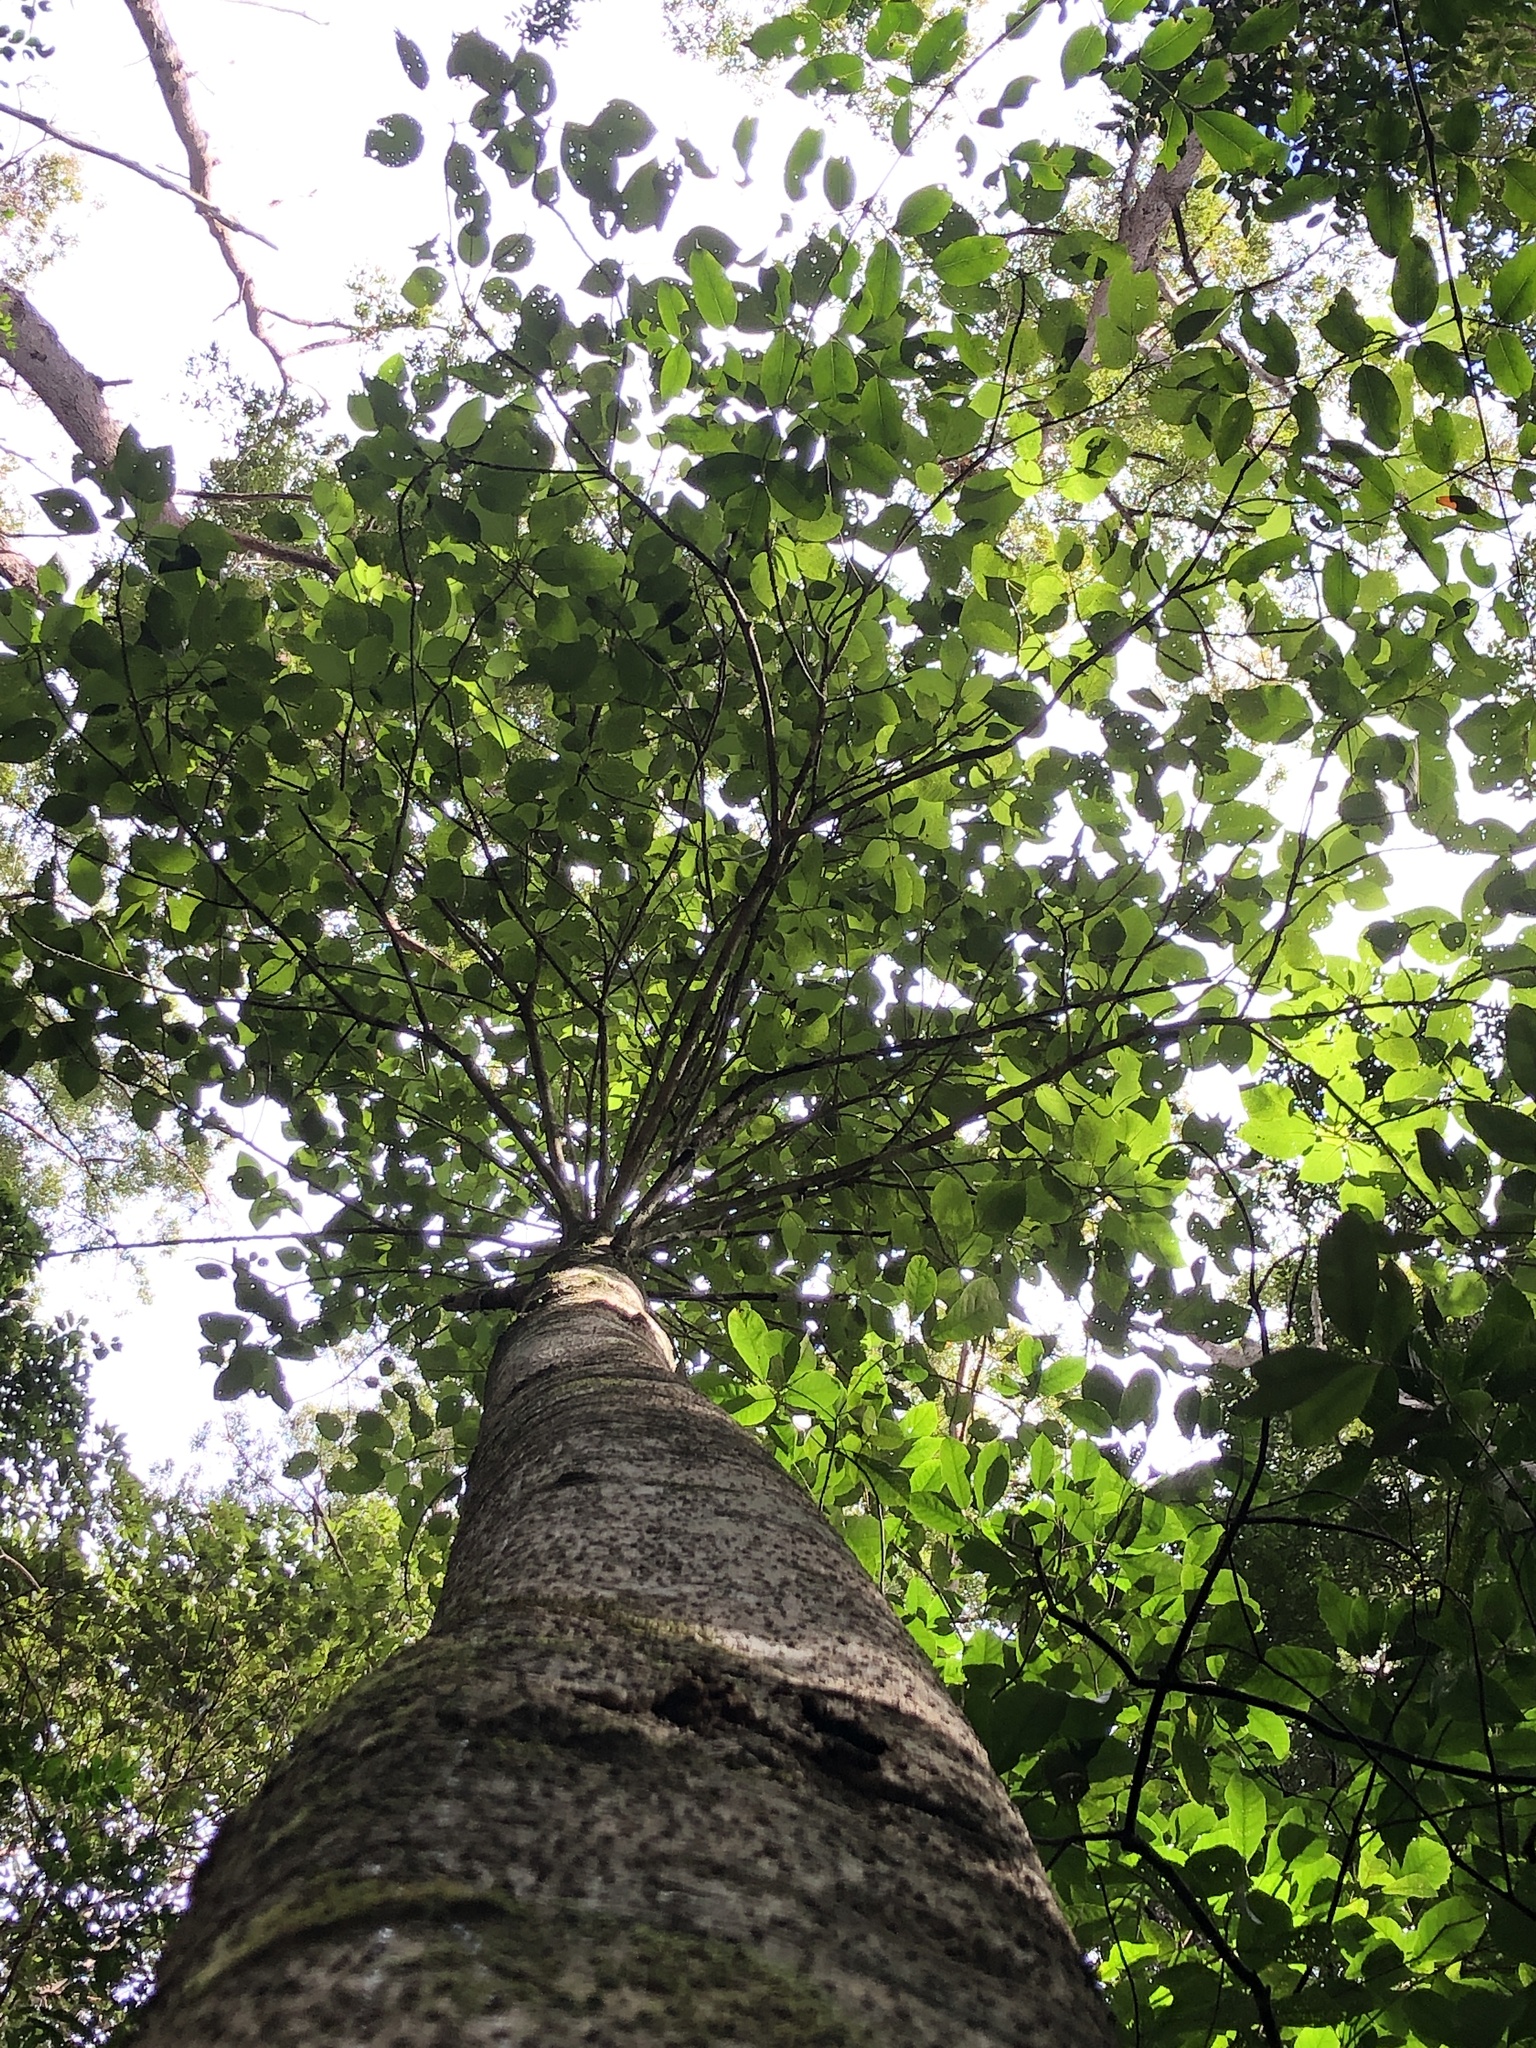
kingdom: Plantae
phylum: Tracheophyta
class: Magnoliopsida
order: Rosales
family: Urticaceae
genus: Dendrocnide
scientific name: Dendrocnide excelsa
